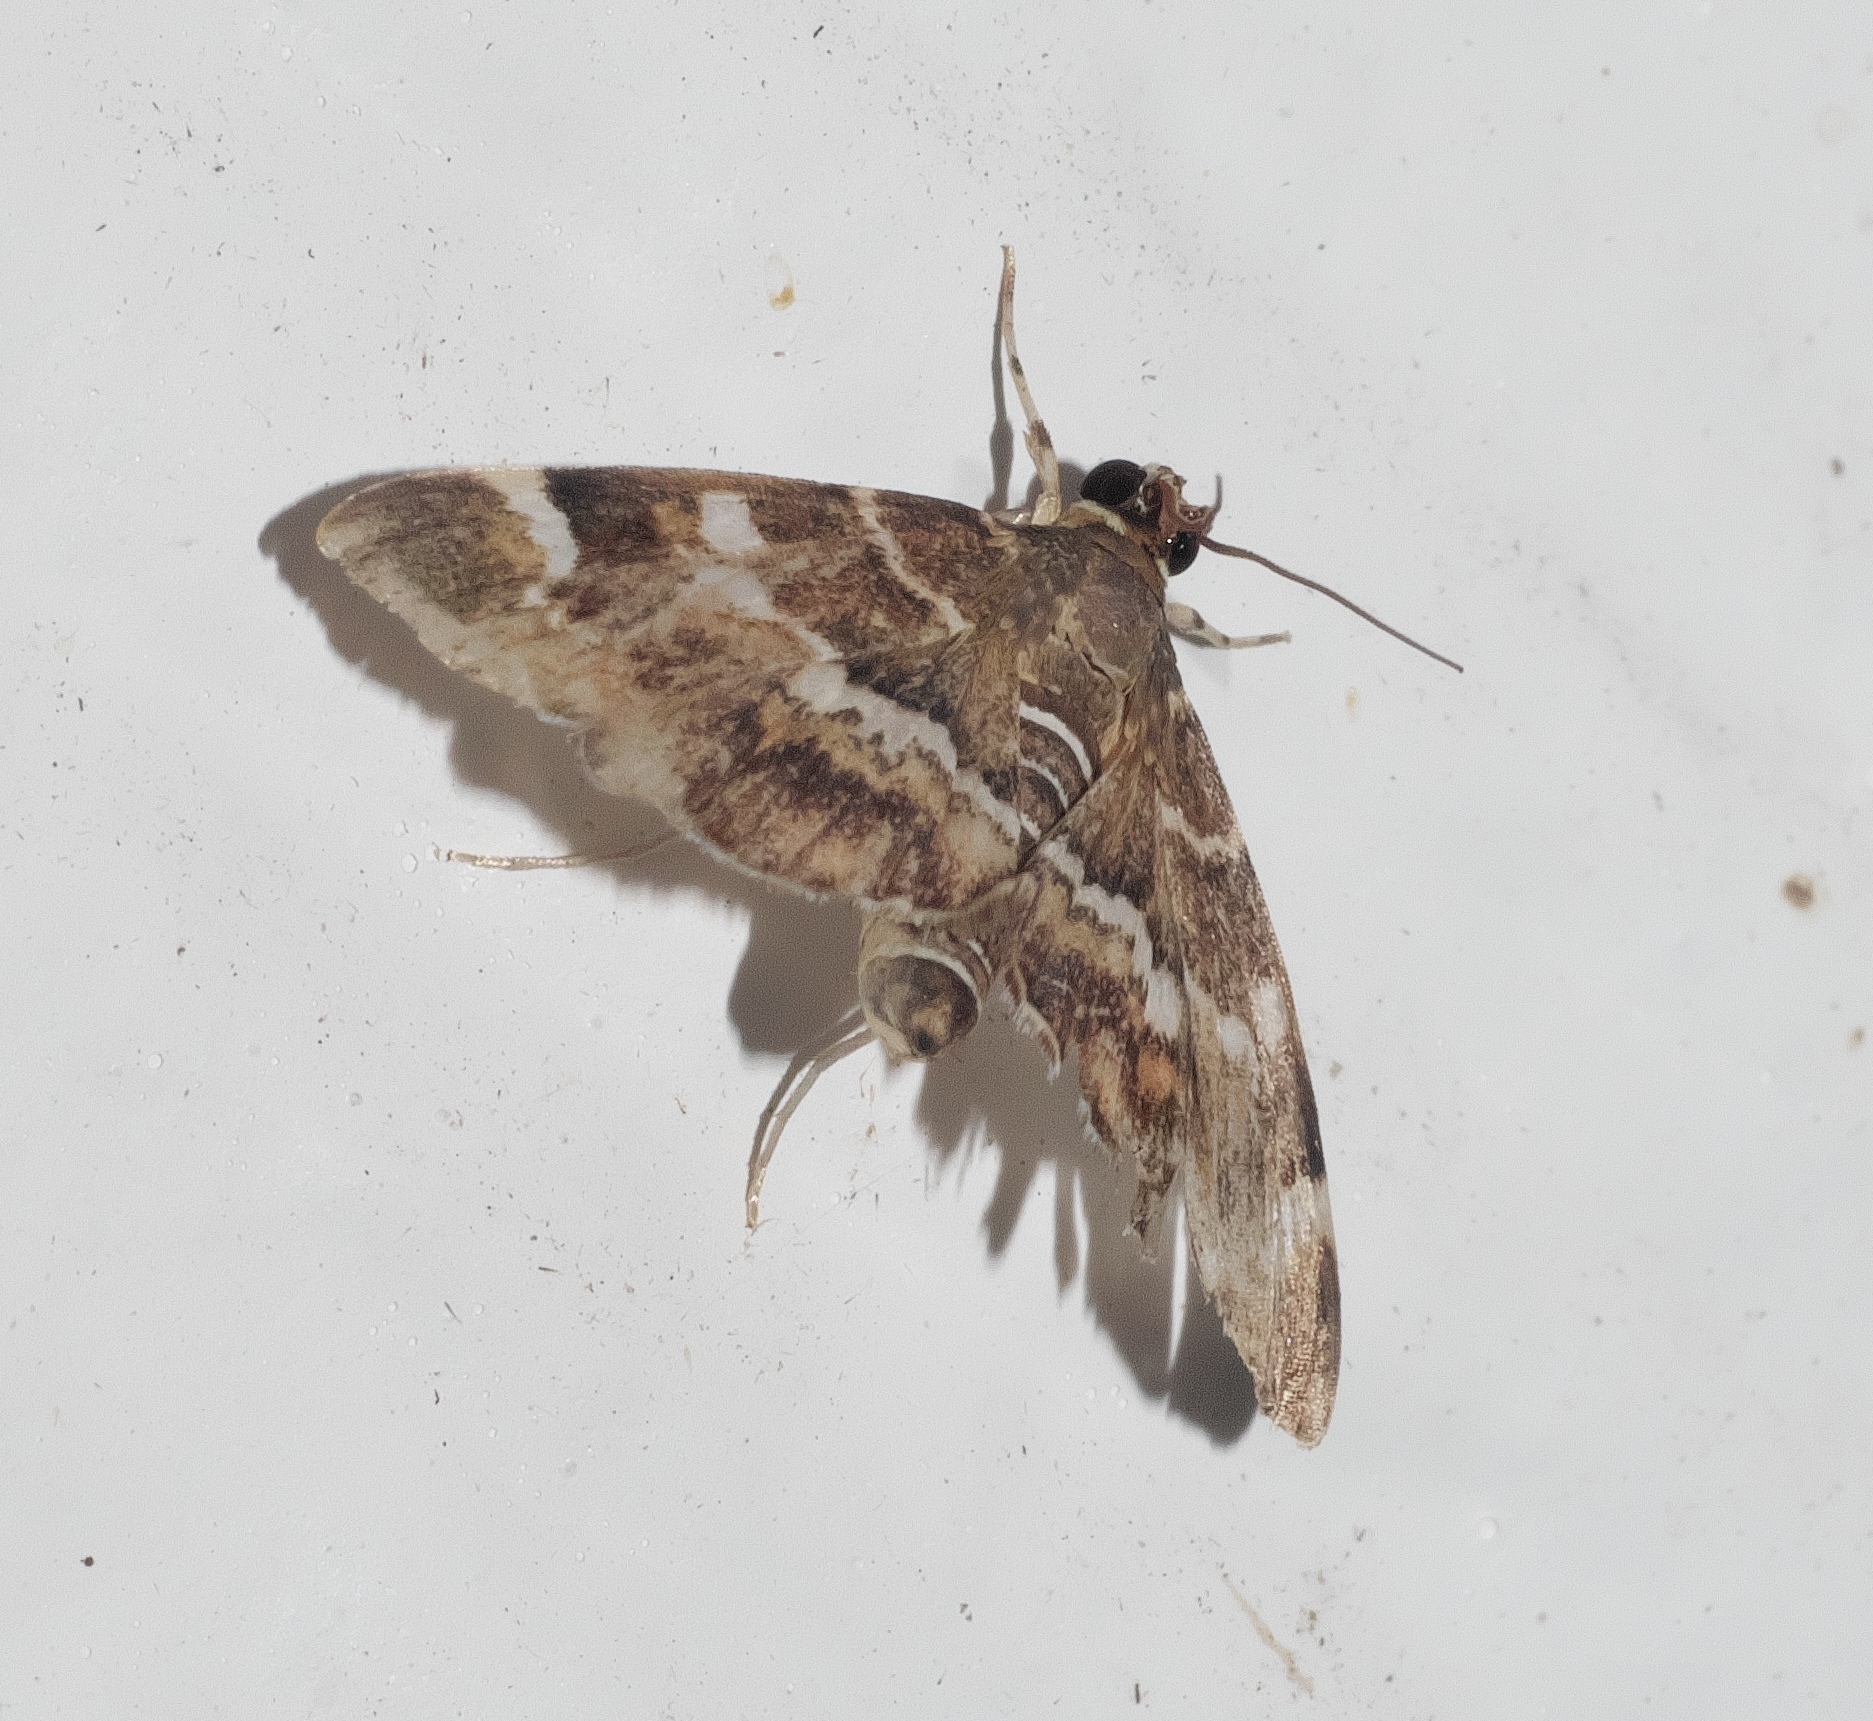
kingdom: Animalia
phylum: Arthropoda
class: Insecta
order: Lepidoptera
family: Crambidae
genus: Hymenia
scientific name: Hymenia perspectalis
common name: Spotted beet webworm
